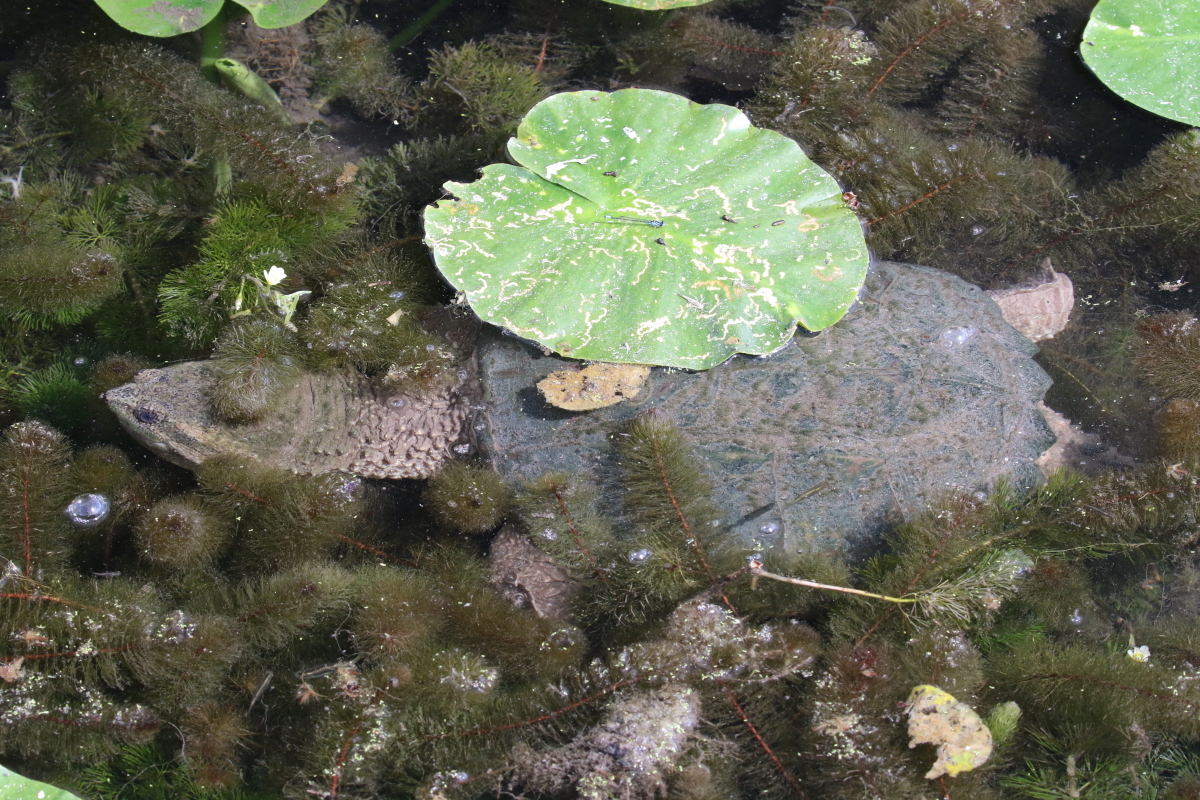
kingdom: Animalia
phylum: Chordata
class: Testudines
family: Chelydridae
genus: Chelydra
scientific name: Chelydra serpentina
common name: Common snapping turtle
